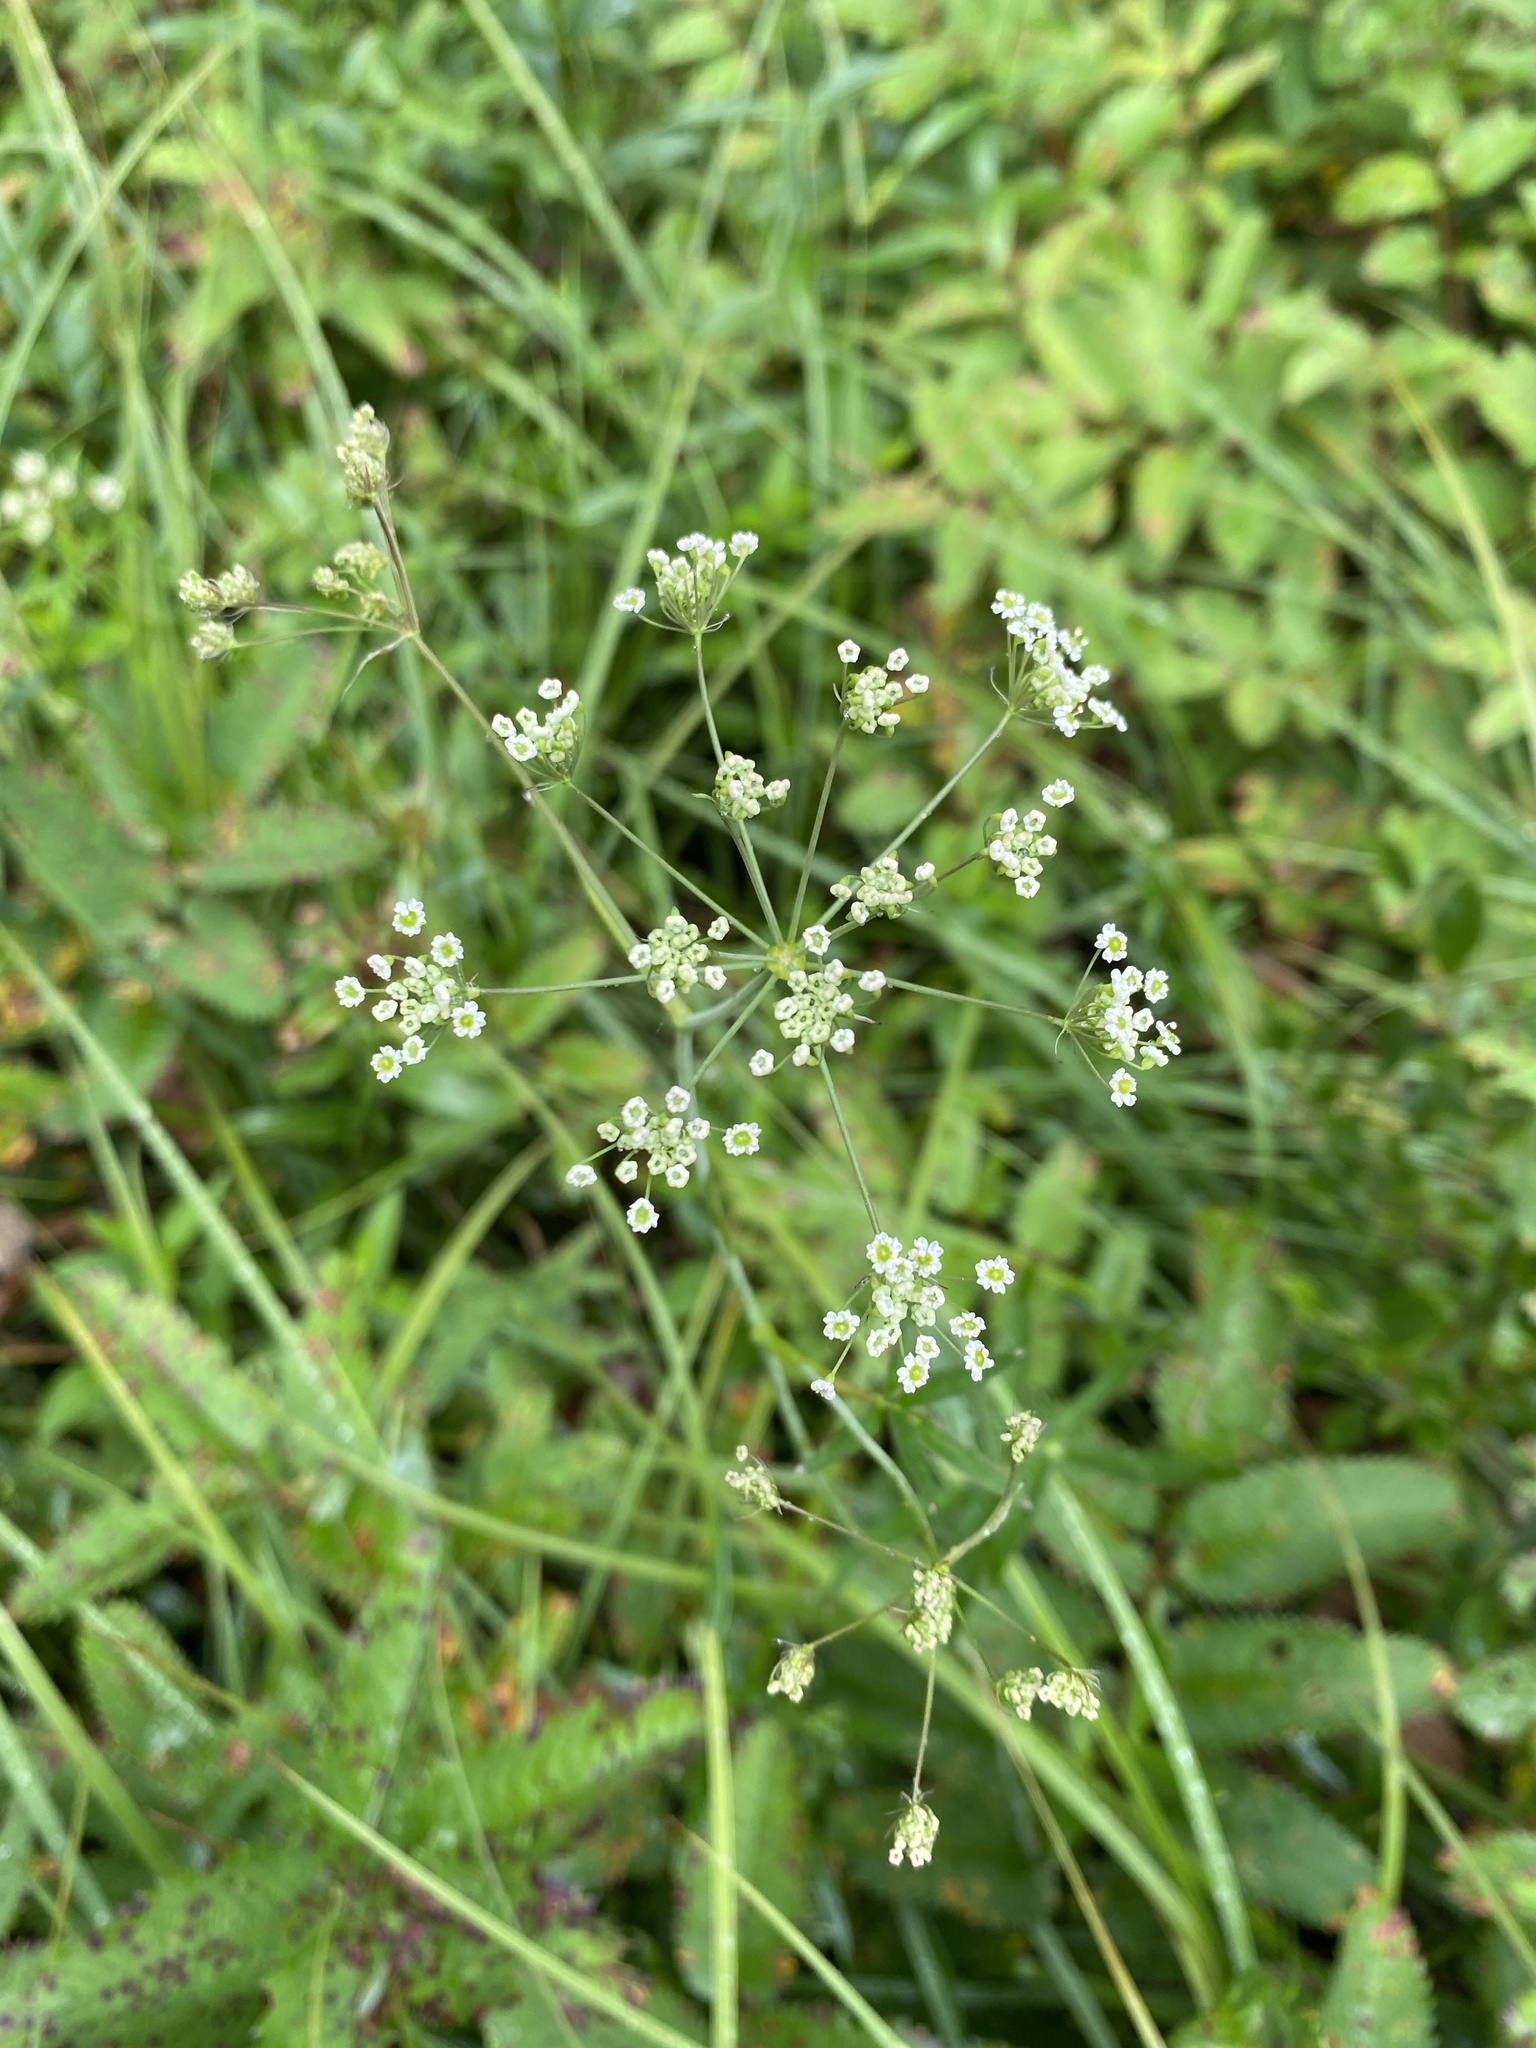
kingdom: Plantae
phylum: Tracheophyta
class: Magnoliopsida
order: Apiales
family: Apiaceae
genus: Oxypolis
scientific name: Oxypolis rigidior
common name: Cowbane
